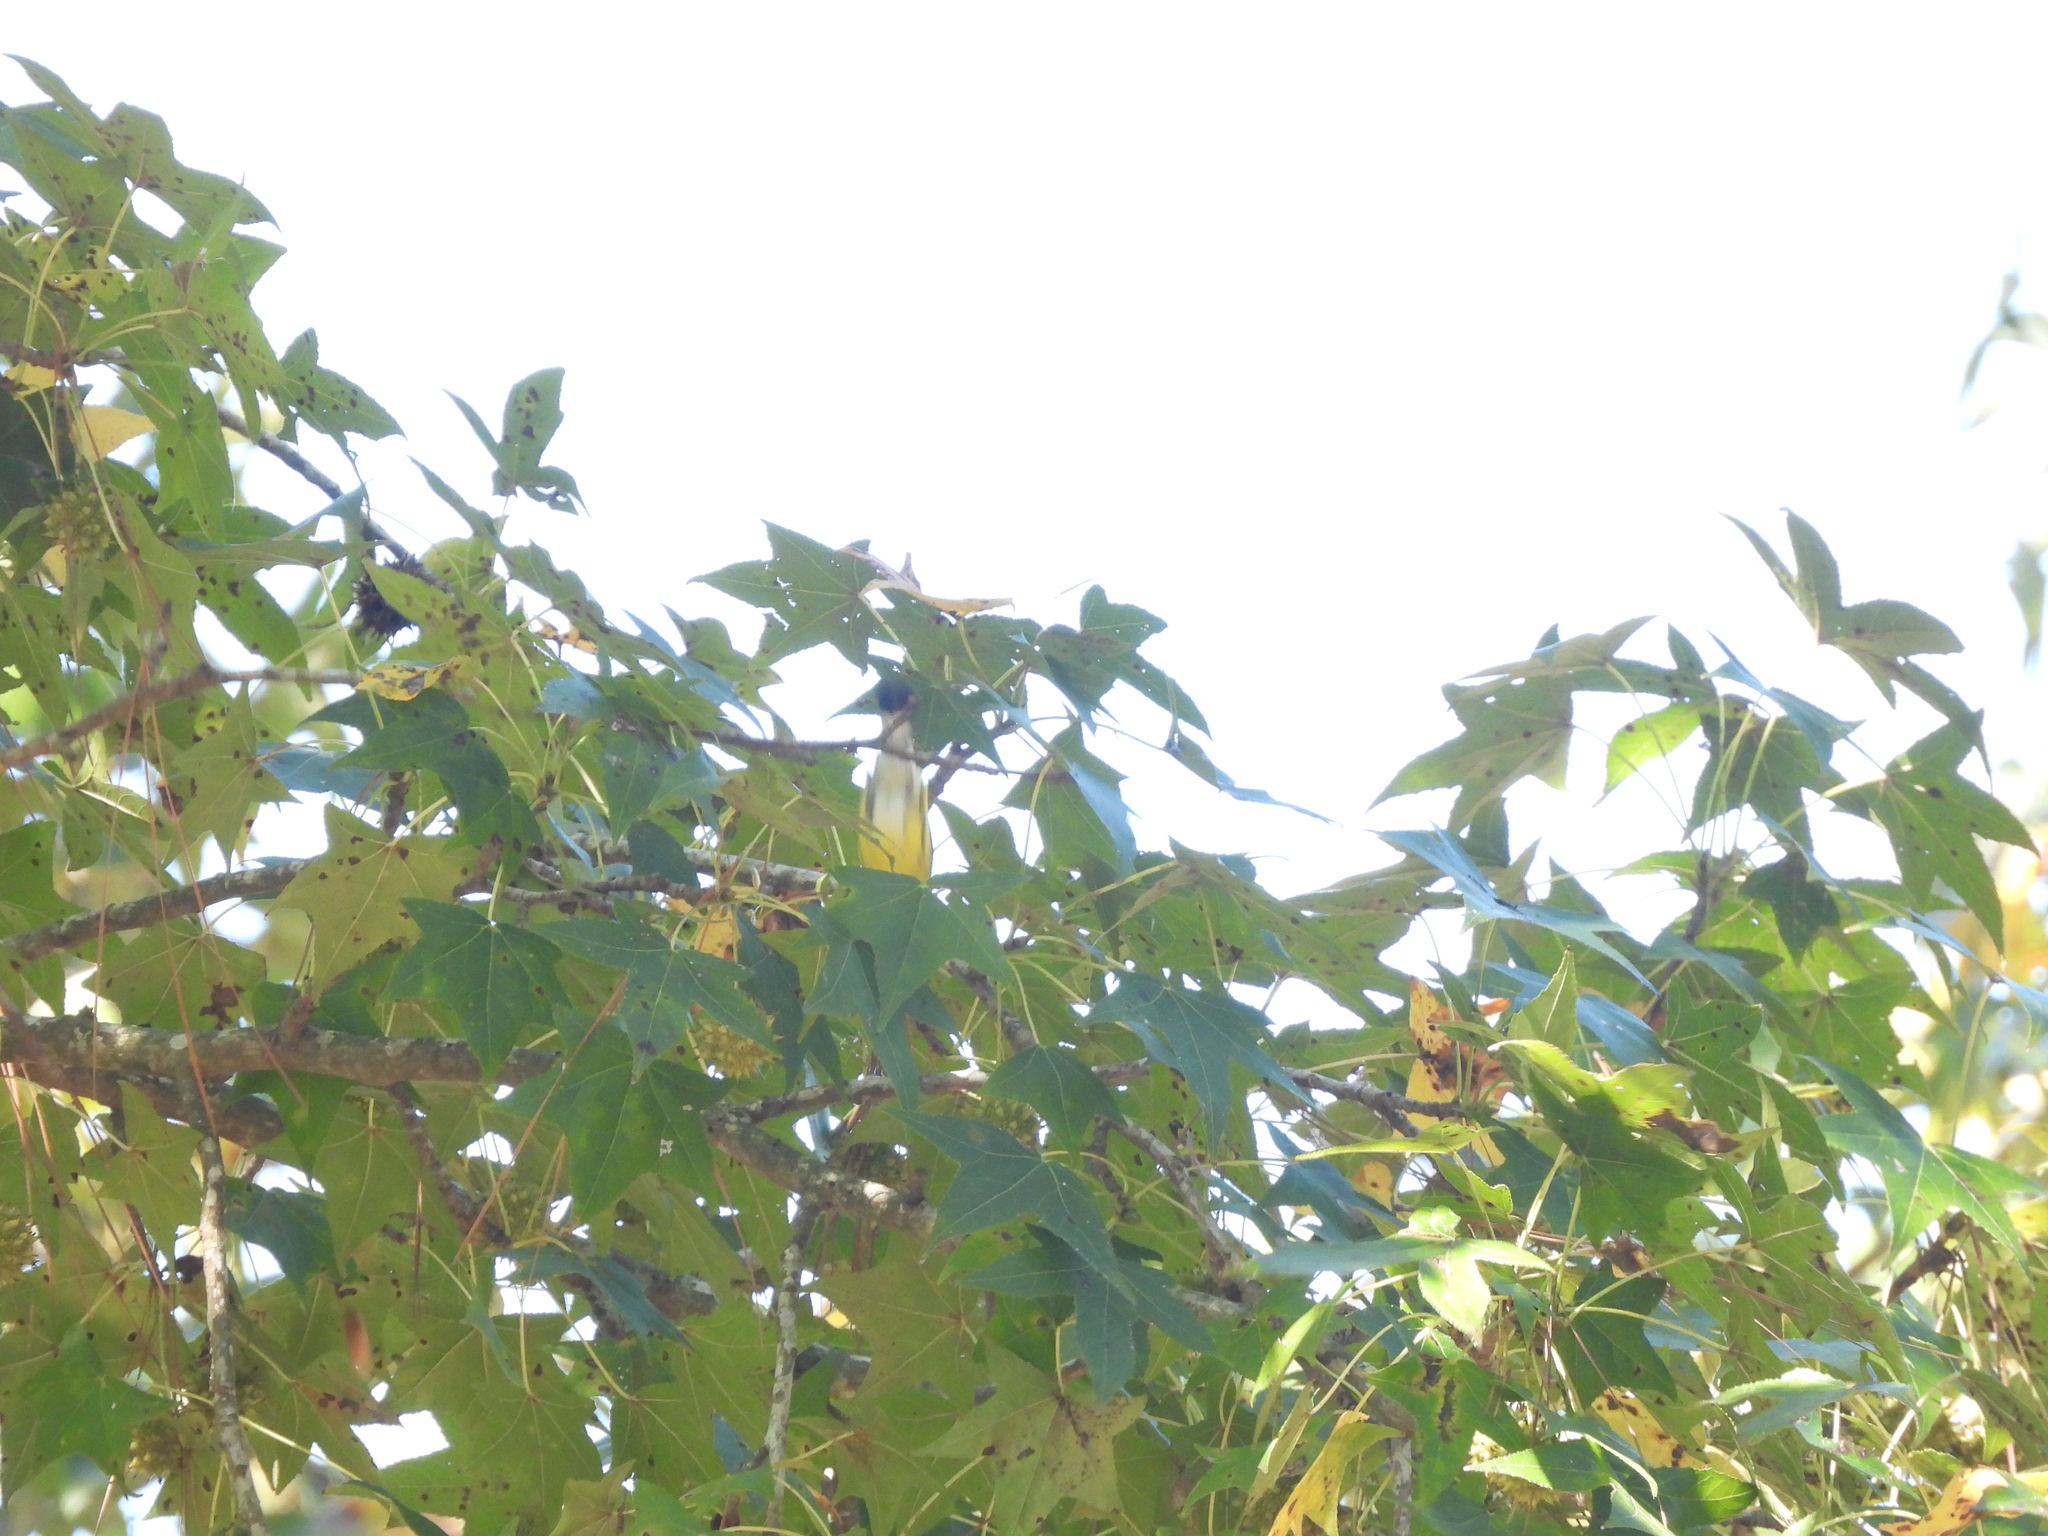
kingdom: Animalia
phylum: Chordata
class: Aves
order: Passeriformes
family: Parulidae
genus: Setophaga
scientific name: Setophaga magnolia
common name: Magnolia warbler
